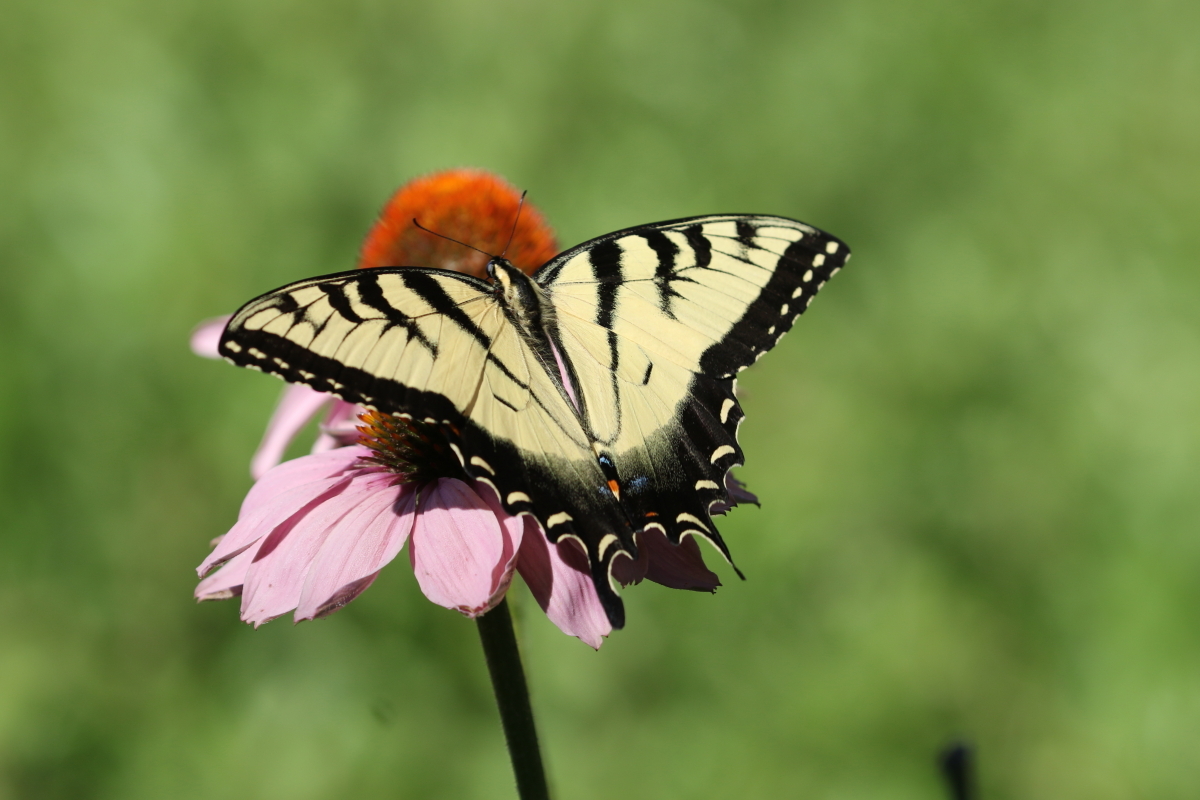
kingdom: Animalia
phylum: Arthropoda
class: Insecta
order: Lepidoptera
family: Papilionidae
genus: Papilio
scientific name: Papilio glaucus
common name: Tiger swallowtail
